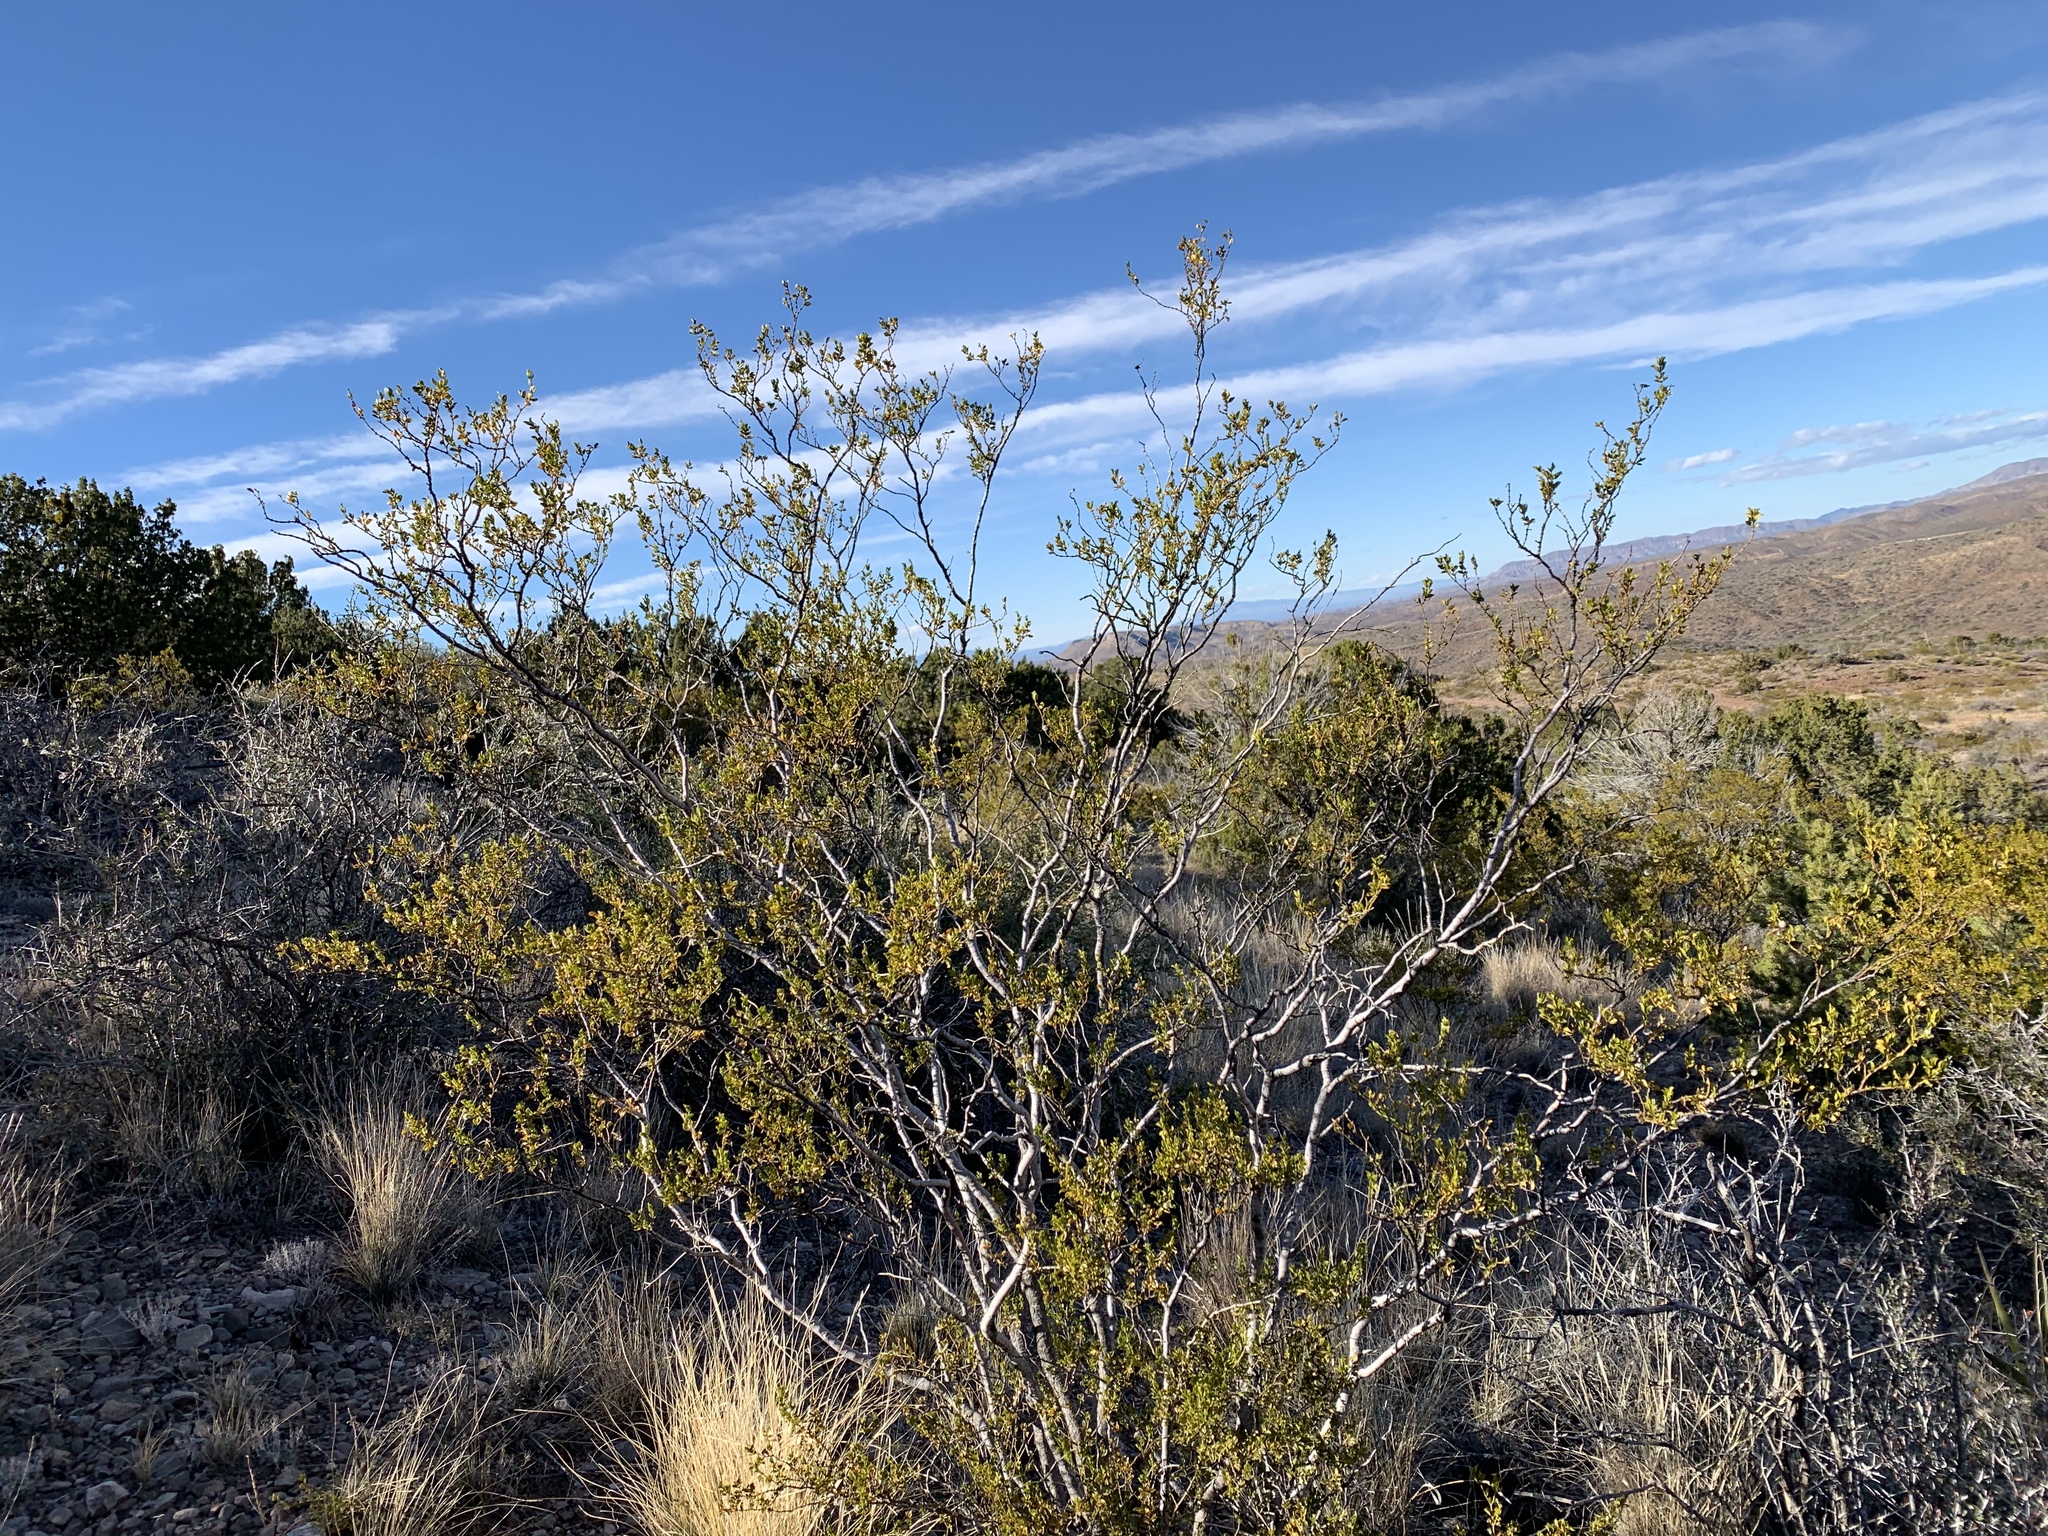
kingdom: Plantae
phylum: Tracheophyta
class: Magnoliopsida
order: Zygophyllales
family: Zygophyllaceae
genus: Larrea
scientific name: Larrea tridentata
